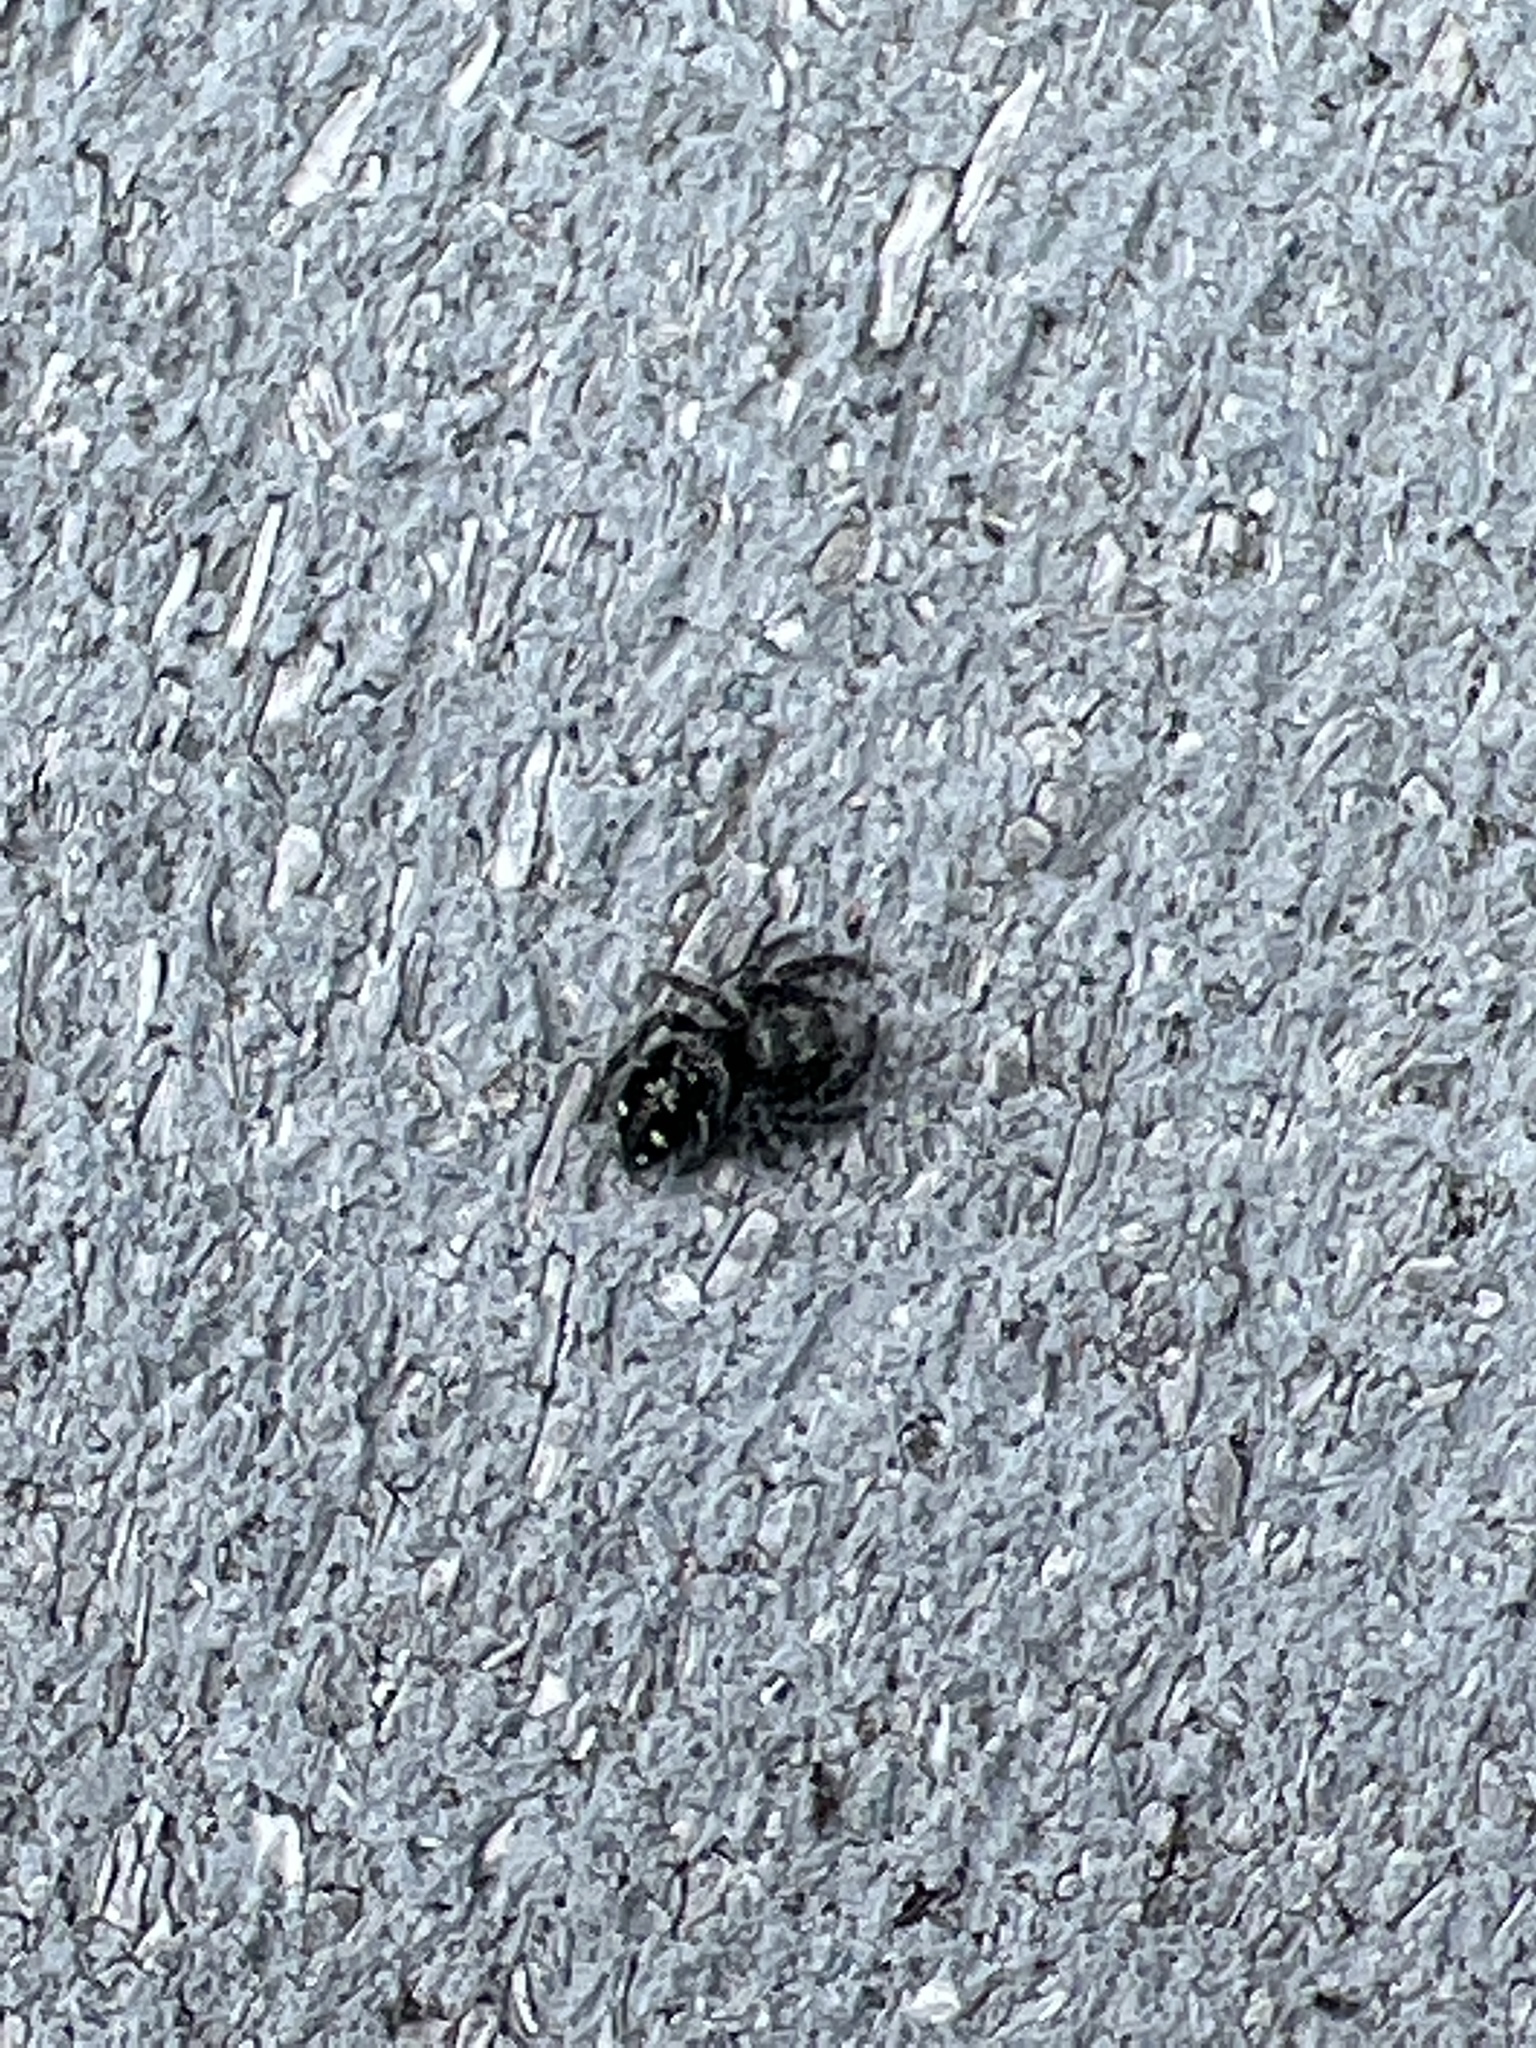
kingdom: Animalia
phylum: Arthropoda
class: Arachnida
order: Araneae
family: Salticidae
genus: Phidippus
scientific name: Phidippus borealis
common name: Boreal tufted jumping spider
